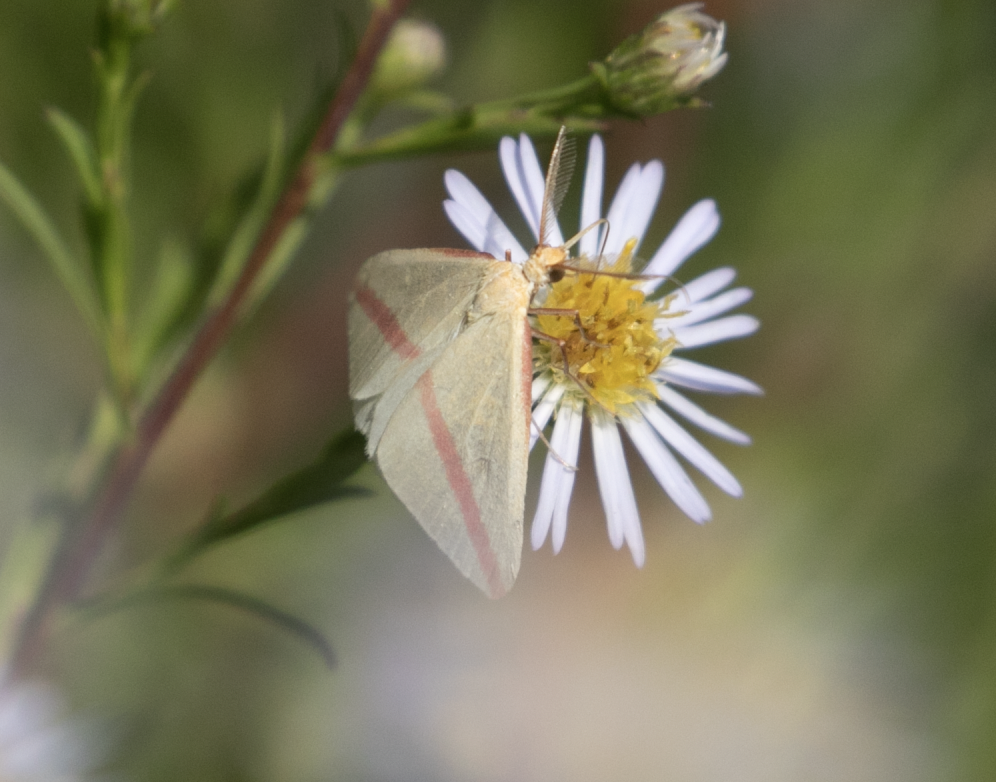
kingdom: Animalia
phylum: Arthropoda
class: Insecta
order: Lepidoptera
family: Geometridae
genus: Rhodometra
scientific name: Rhodometra sacraria
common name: Vestal
